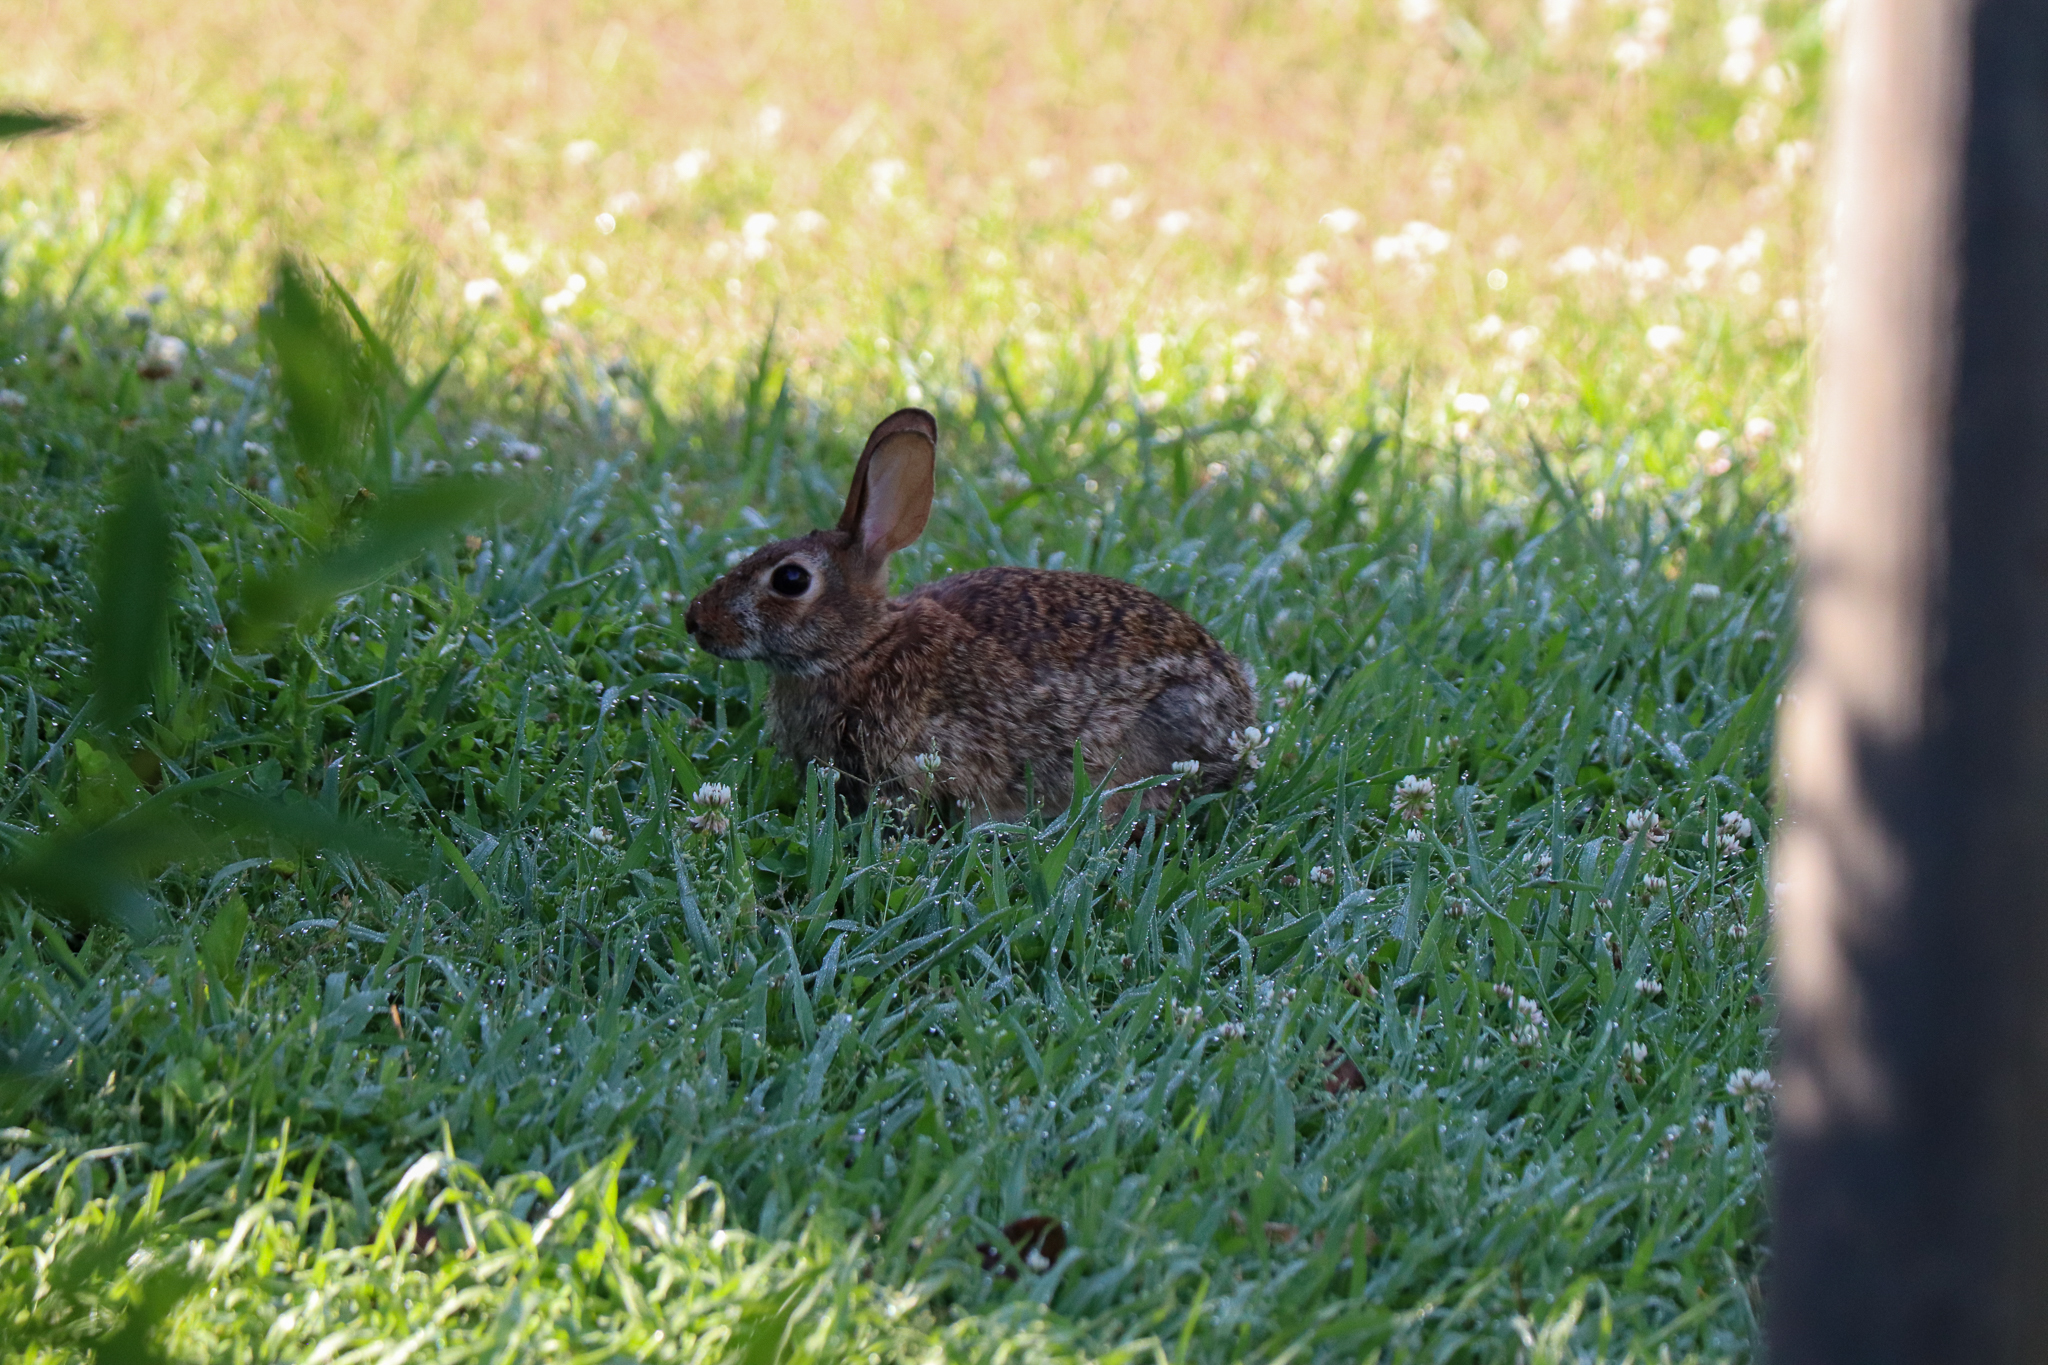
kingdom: Animalia
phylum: Chordata
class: Mammalia
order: Lagomorpha
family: Leporidae
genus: Sylvilagus
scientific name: Sylvilagus floridanus
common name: Eastern cottontail
